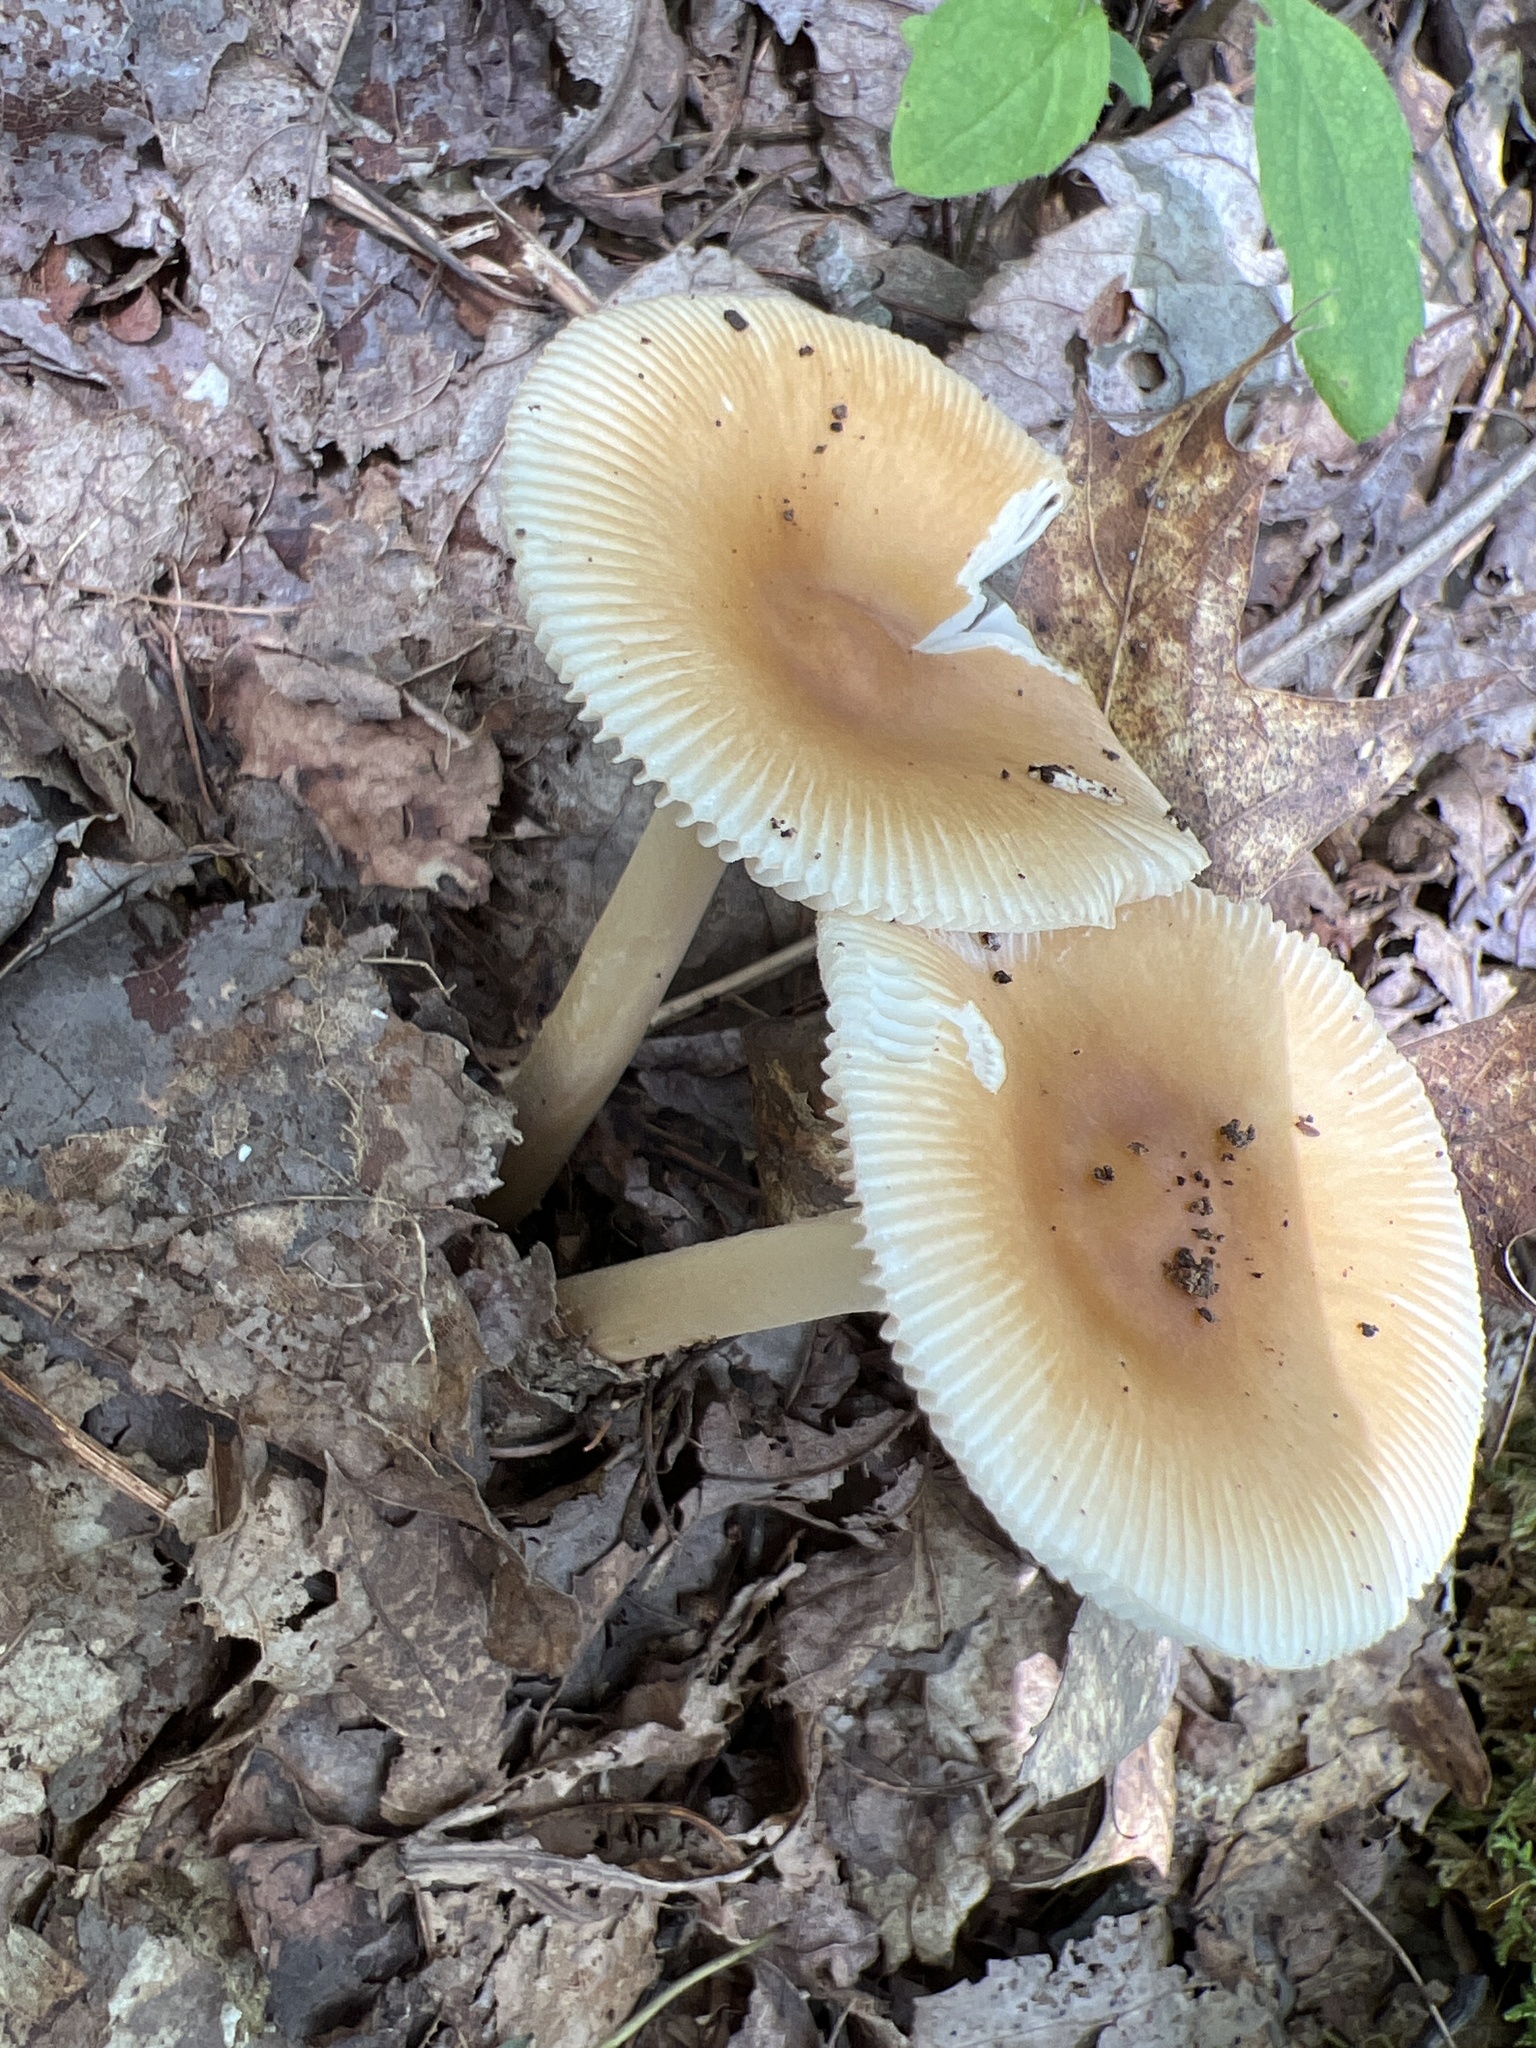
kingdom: Fungi
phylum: Basidiomycota
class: Agaricomycetes
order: Agaricales
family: Amanitaceae
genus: Amanita
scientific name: Amanita fulva
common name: Tawny grisette
